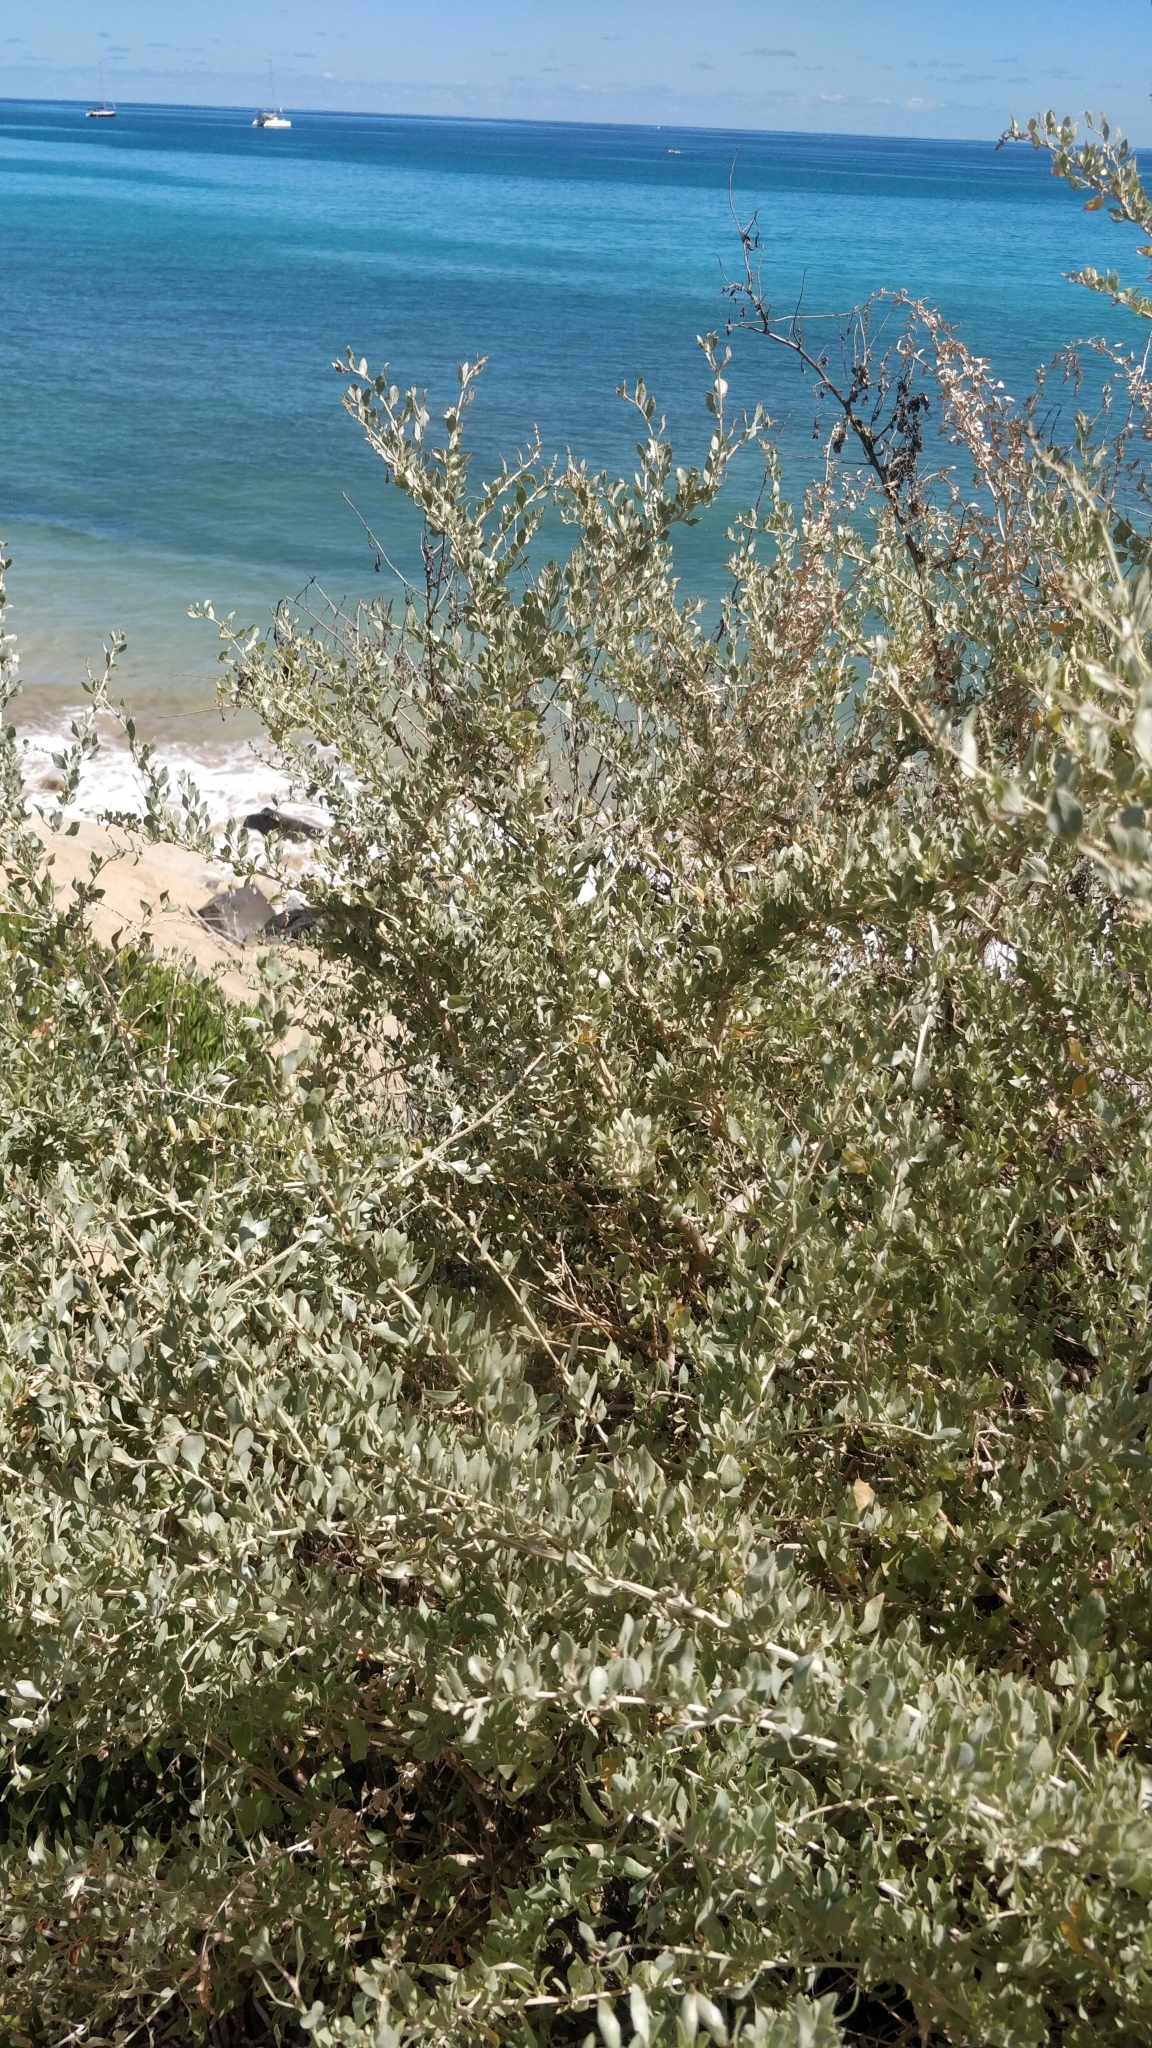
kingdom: Plantae
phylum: Tracheophyta
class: Magnoliopsida
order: Caryophyllales
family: Amaranthaceae
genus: Atriplex
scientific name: Atriplex halimus
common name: Shrubby orache
